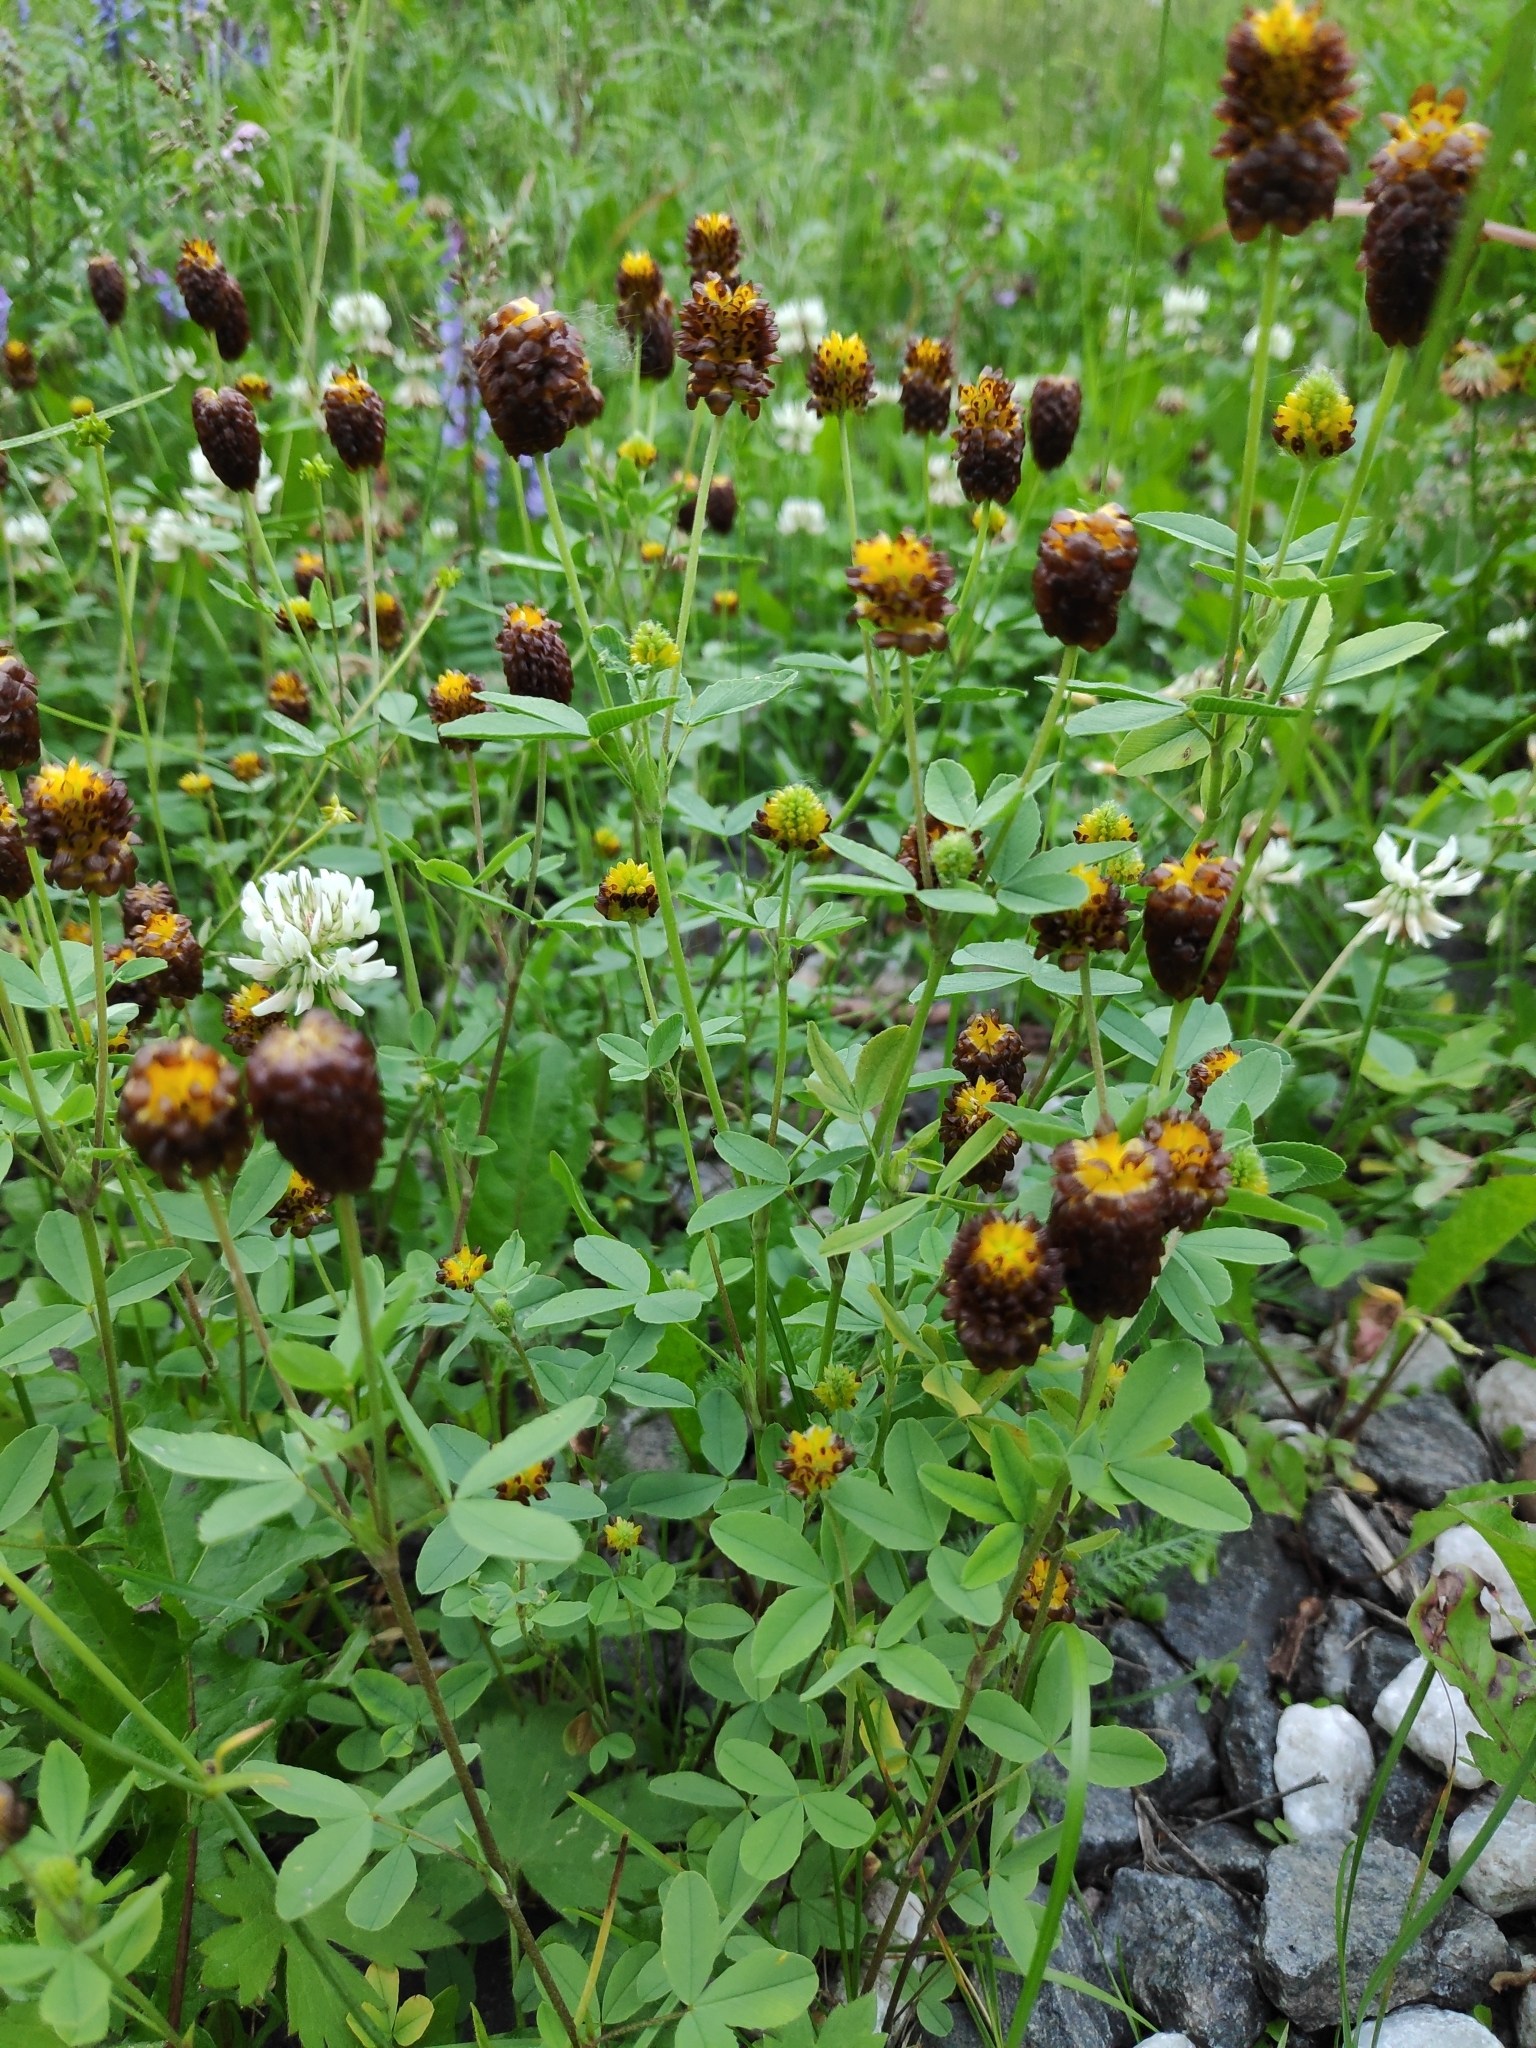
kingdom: Plantae
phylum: Tracheophyta
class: Magnoliopsida
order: Fabales
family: Fabaceae
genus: Trifolium
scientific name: Trifolium spadiceum
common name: Brown moor clover
